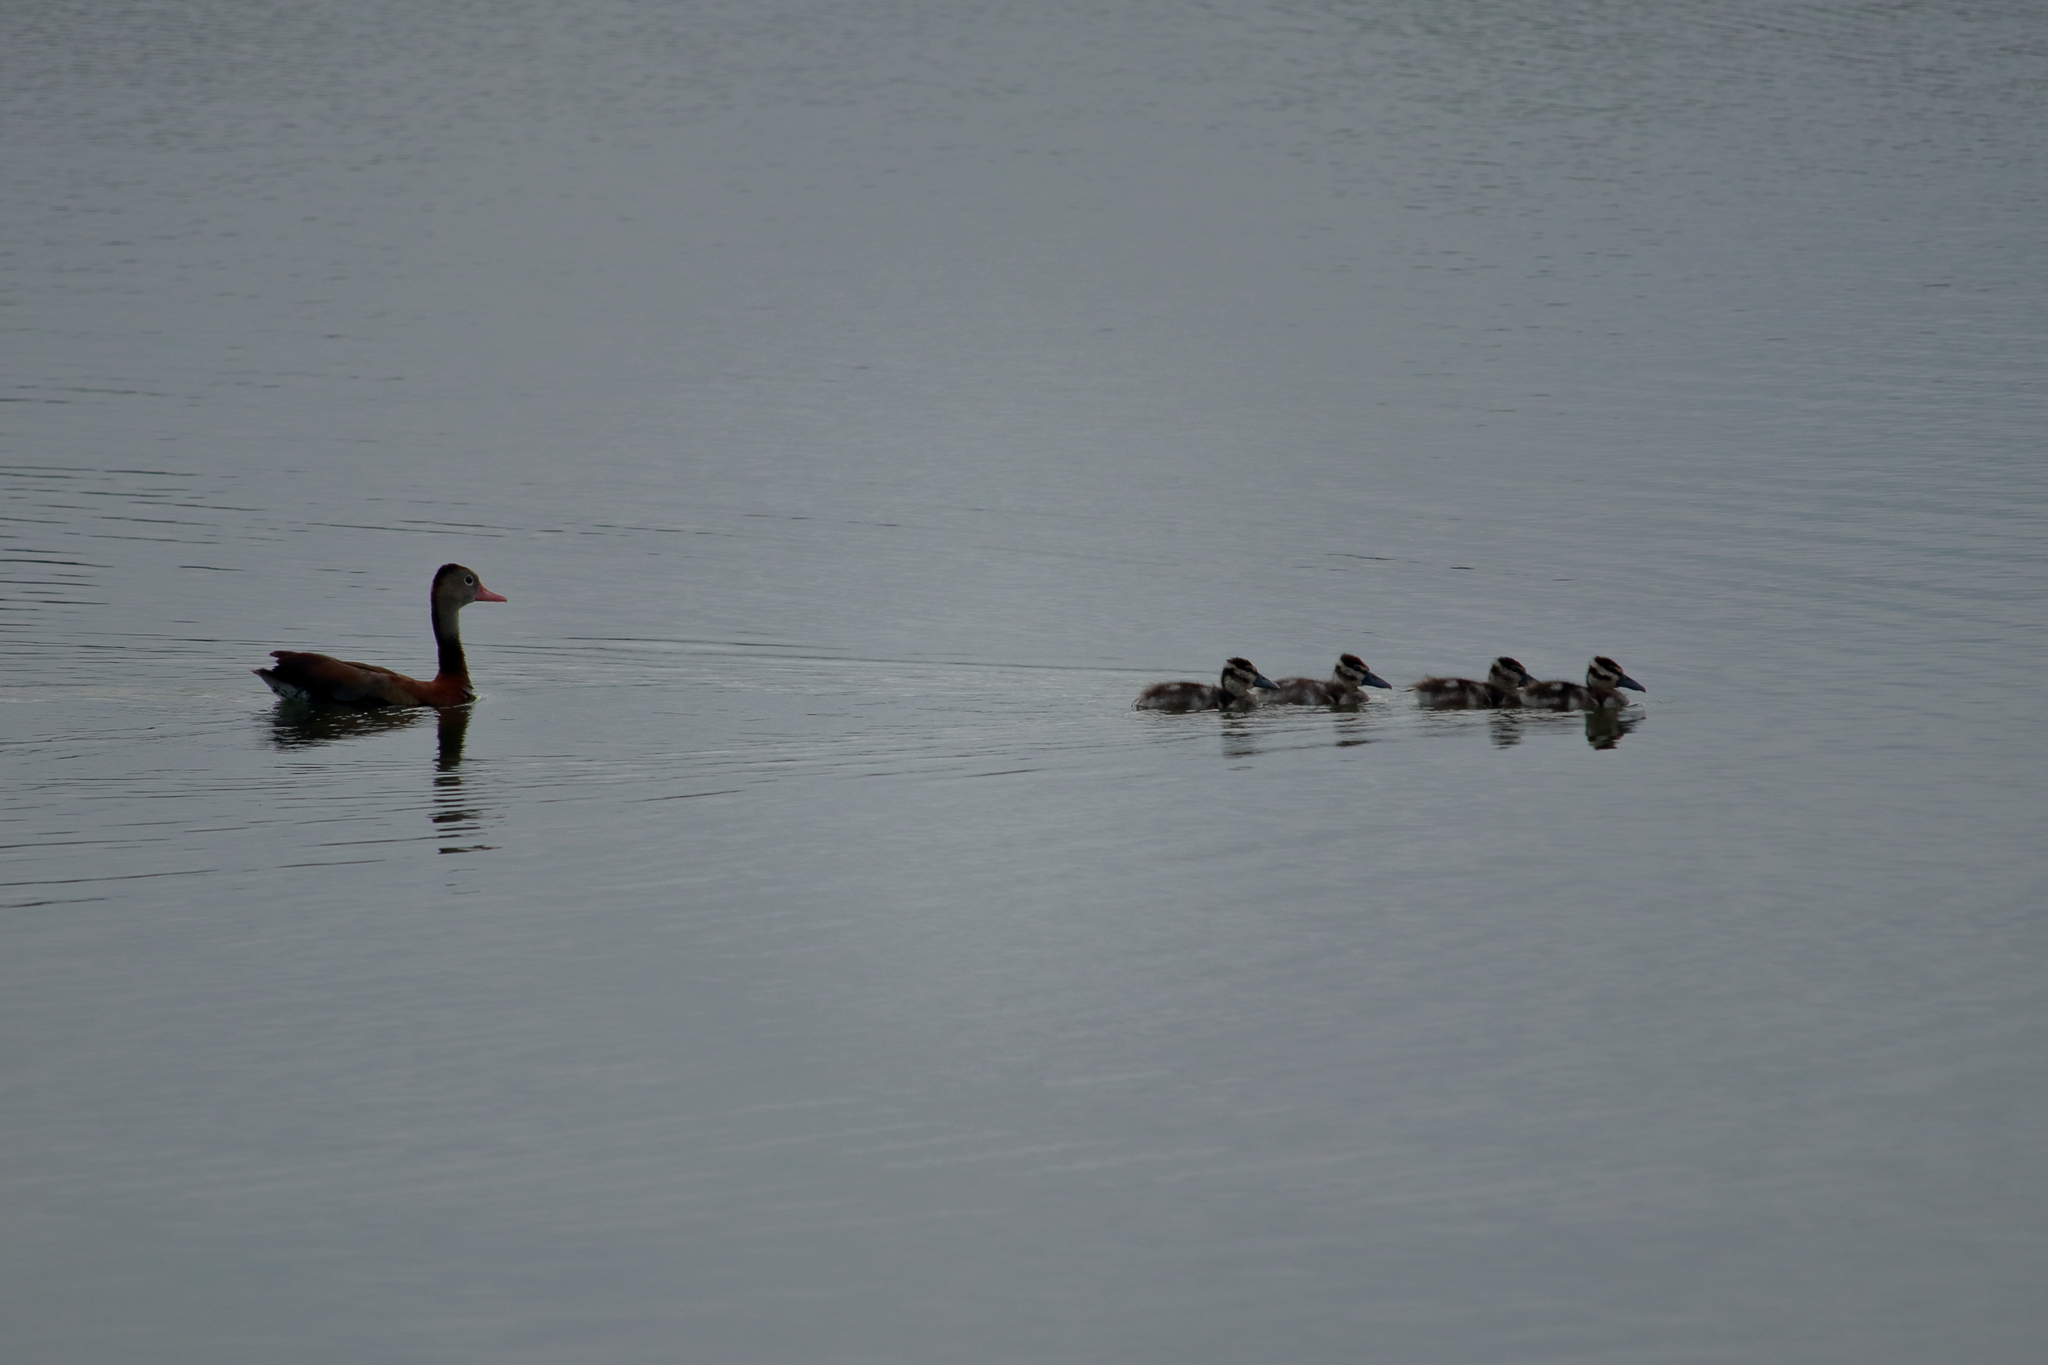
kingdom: Animalia
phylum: Chordata
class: Aves
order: Anseriformes
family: Anatidae
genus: Dendrocygna
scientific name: Dendrocygna autumnalis
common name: Black-bellied whistling duck
